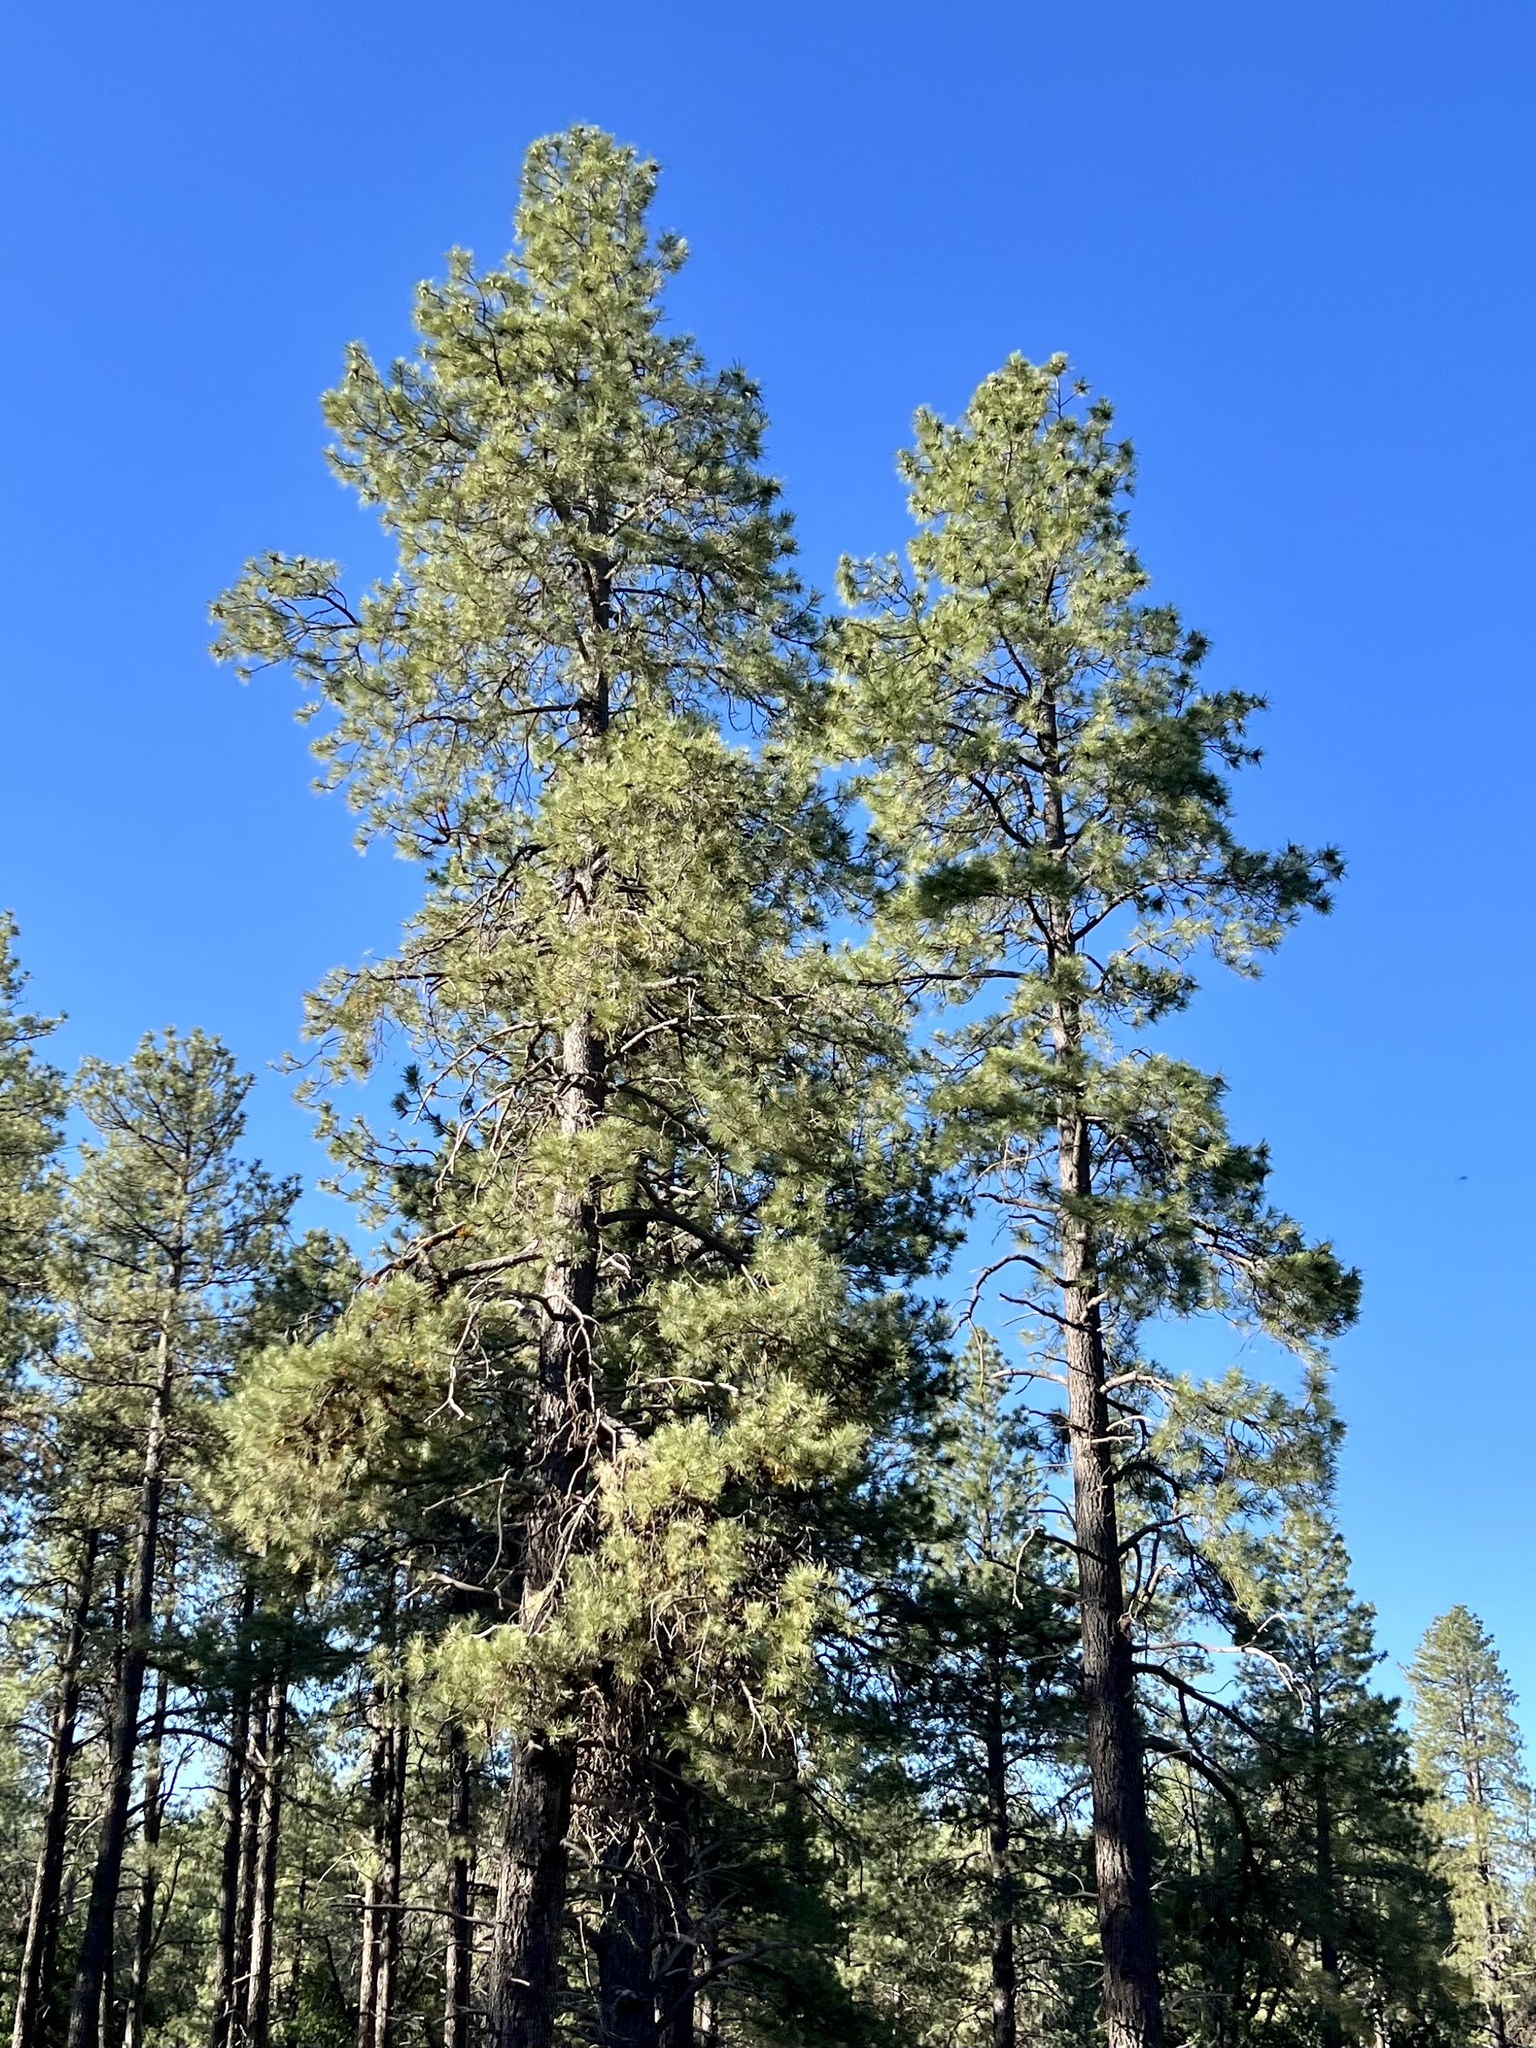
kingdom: Plantae
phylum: Tracheophyta
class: Pinopsida
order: Pinales
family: Pinaceae
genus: Pinus
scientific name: Pinus ponderosa
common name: Western yellow-pine
